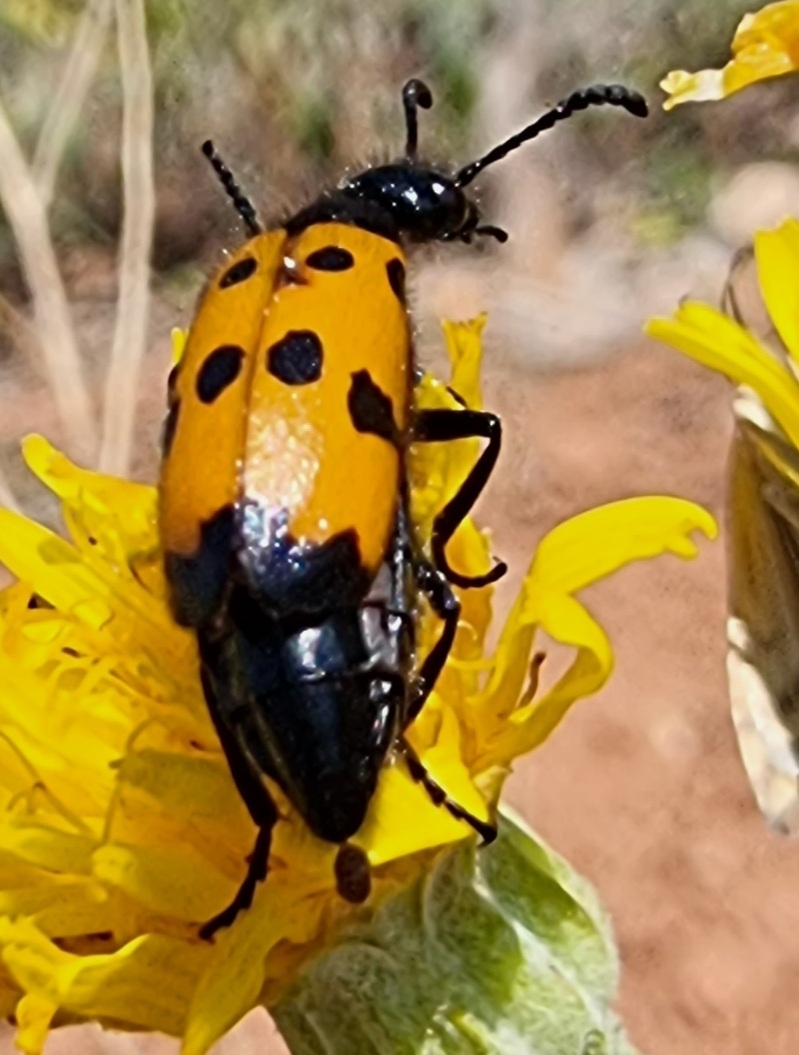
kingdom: Animalia
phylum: Arthropoda
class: Insecta
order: Coleoptera
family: Meloidae
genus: Mylabris
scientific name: Mylabris quadripunctata
